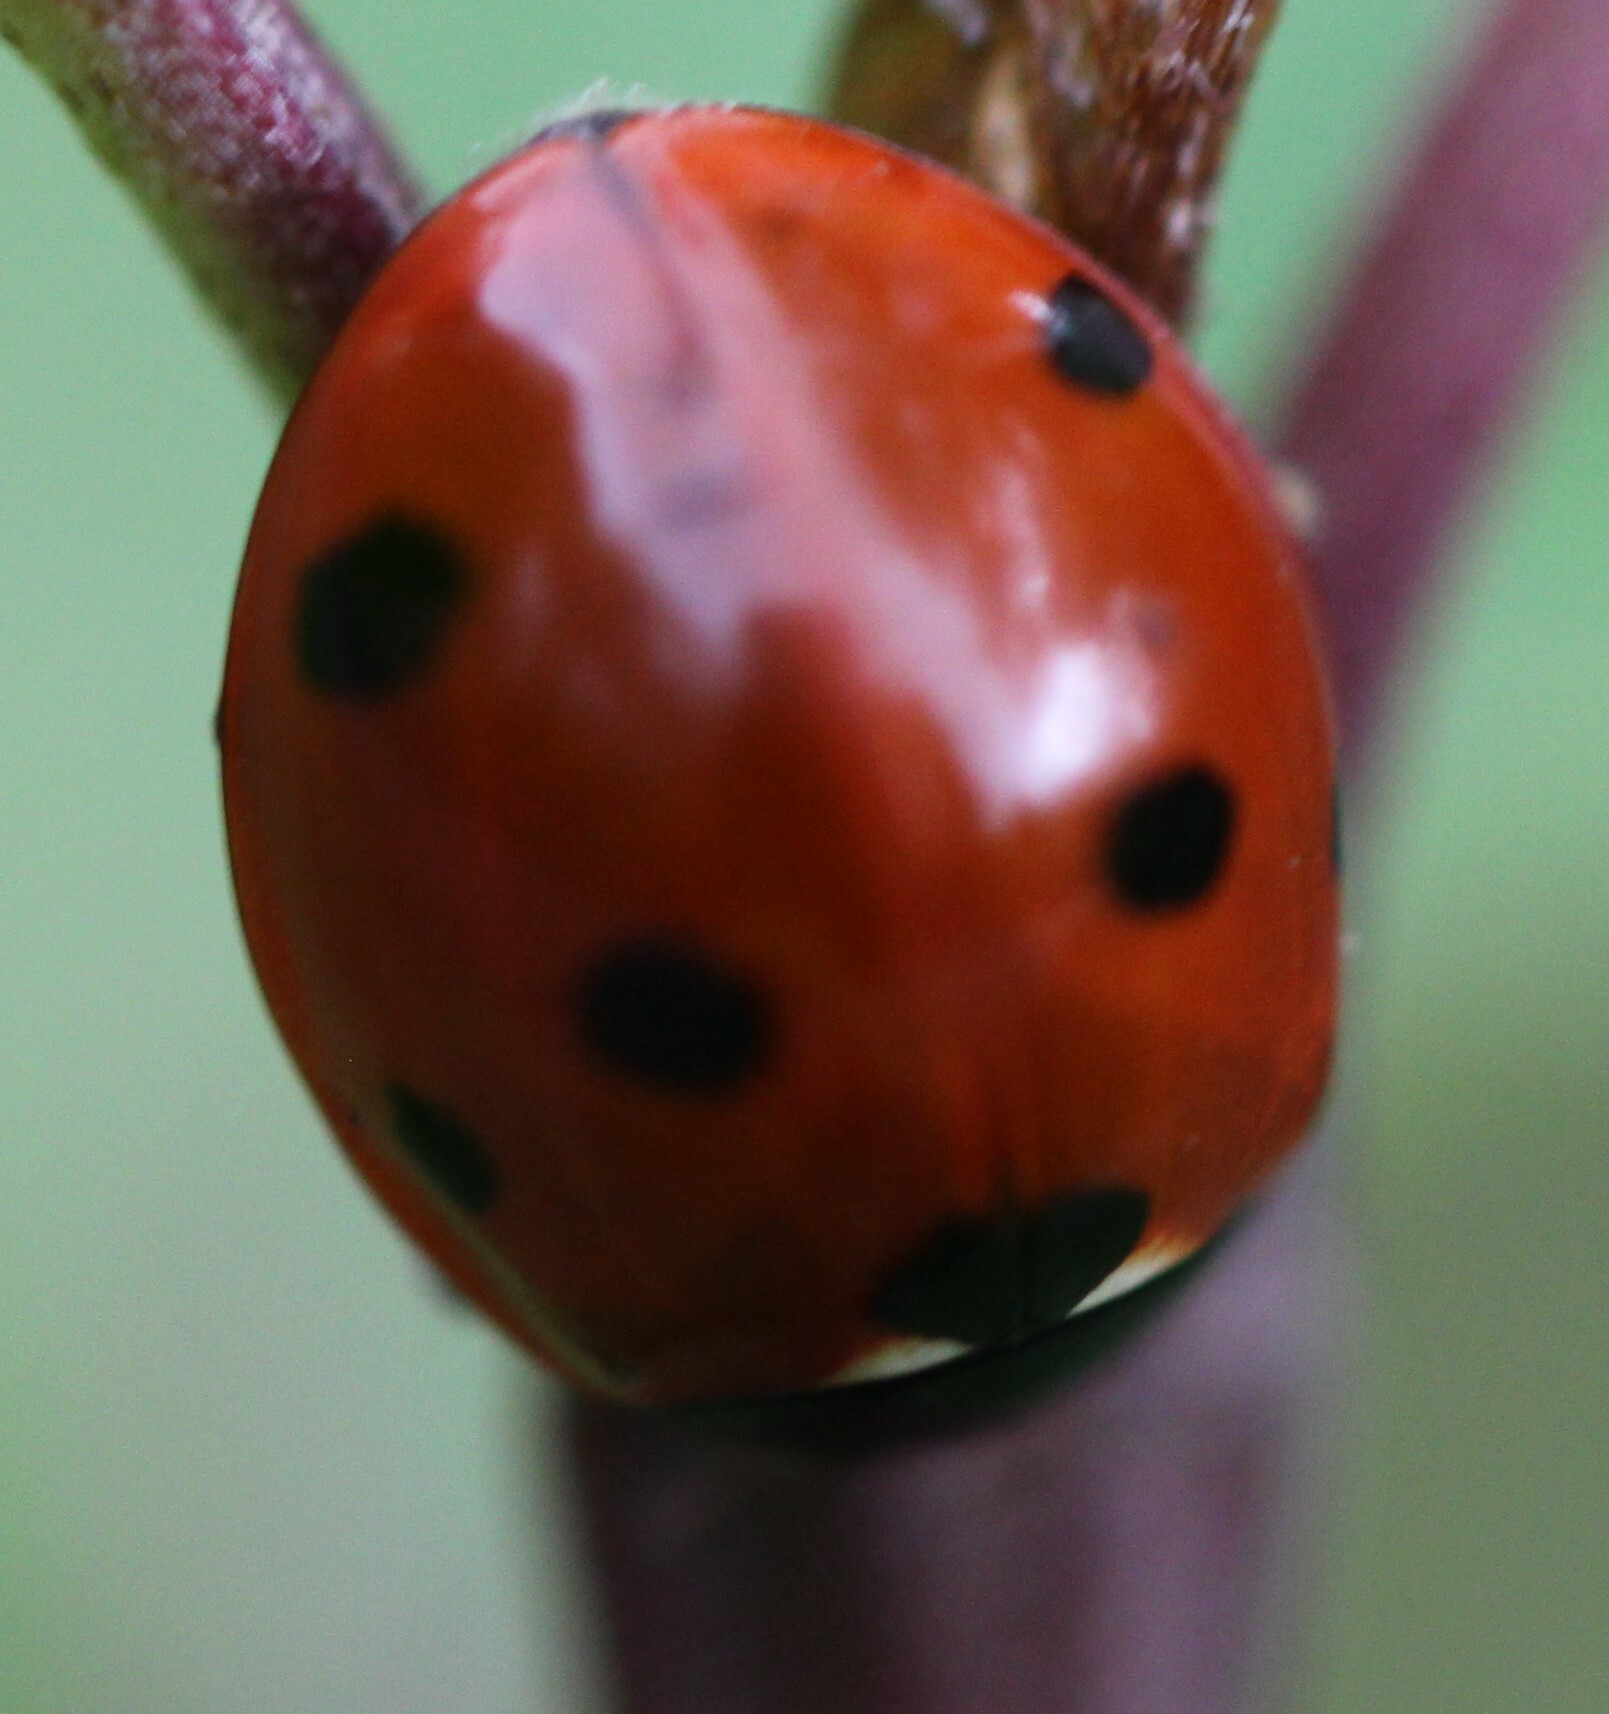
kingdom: Animalia
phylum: Arthropoda
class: Insecta
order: Coleoptera
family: Coccinellidae
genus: Coccinella
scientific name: Coccinella septempunctata
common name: Sevenspotted lady beetle
